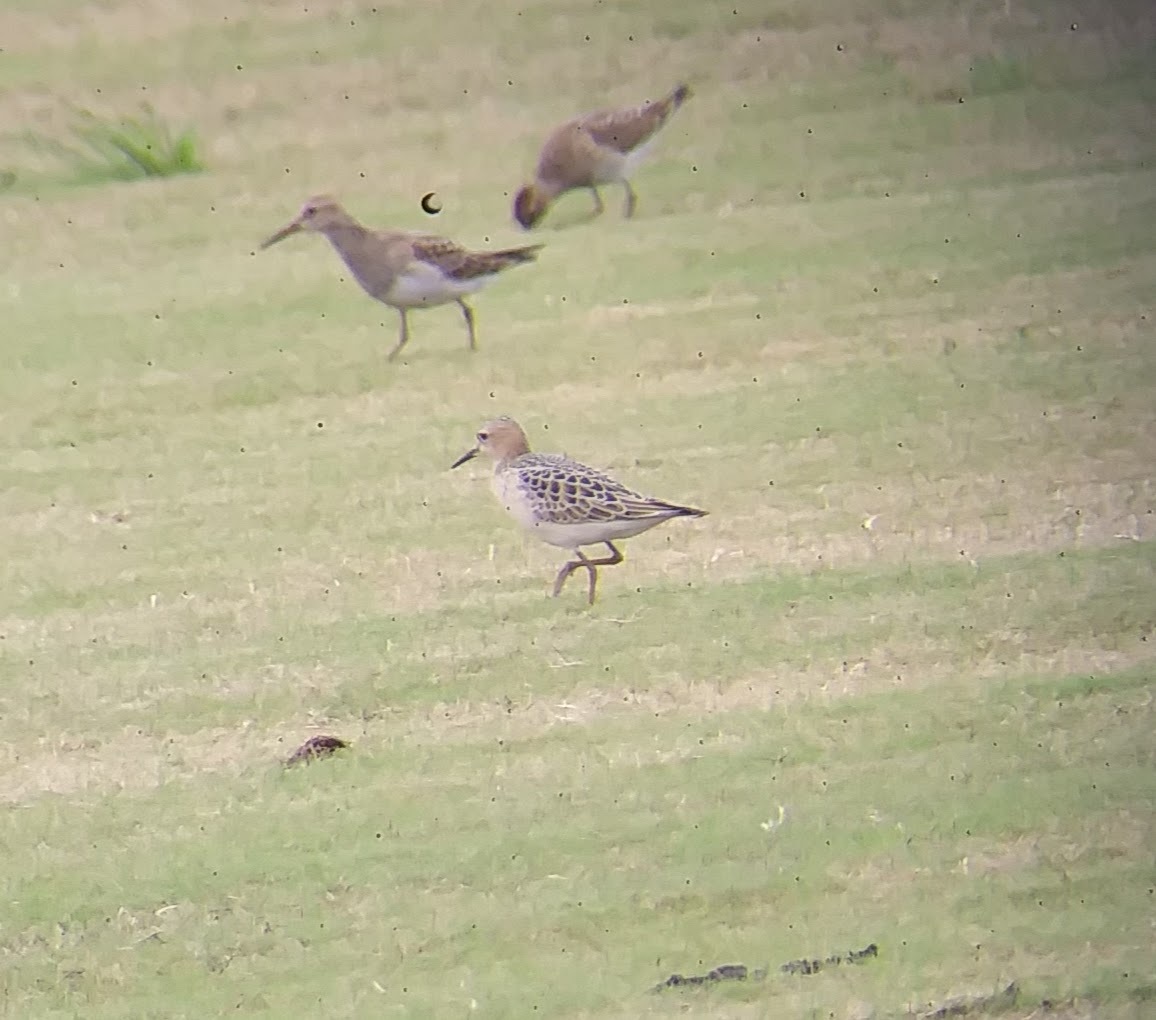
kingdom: Animalia
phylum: Chordata
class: Aves
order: Charadriiformes
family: Scolopacidae
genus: Calidris
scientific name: Calidris melanotos
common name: Pectoral sandpiper
